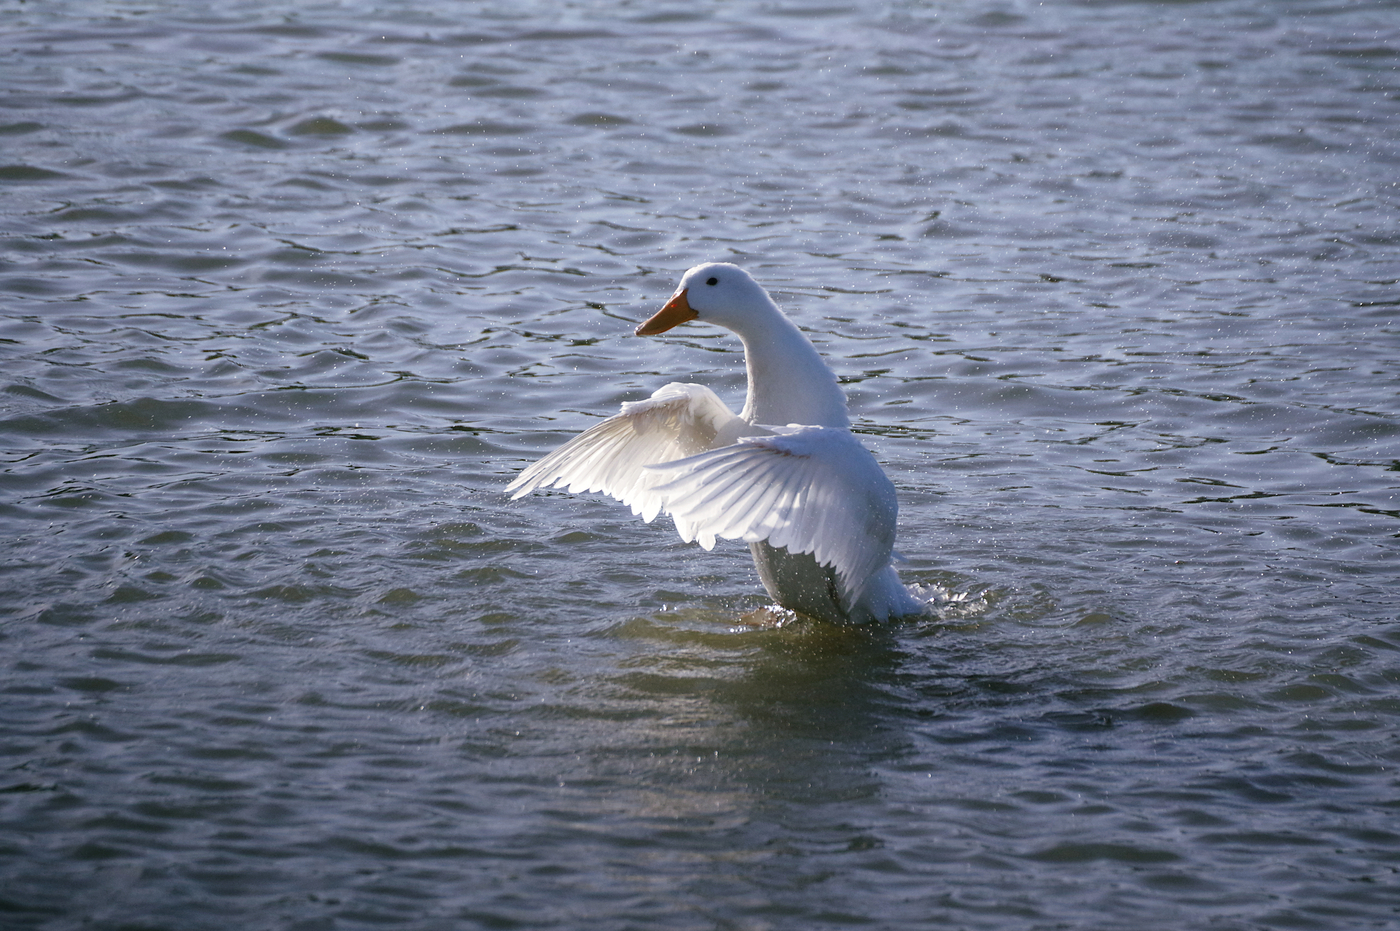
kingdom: Animalia
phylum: Chordata
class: Aves
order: Anseriformes
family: Anatidae
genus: Anas
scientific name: Anas platyrhynchos
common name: Mallard
